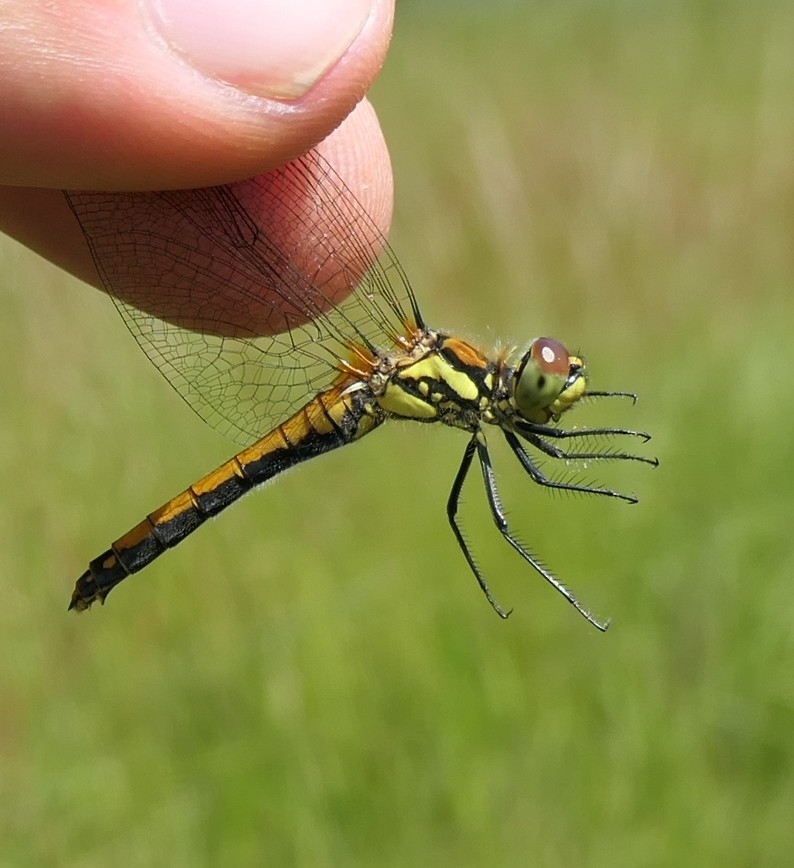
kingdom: Animalia
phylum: Arthropoda
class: Insecta
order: Odonata
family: Libellulidae
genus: Sympetrum
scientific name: Sympetrum danae
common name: Black darter
